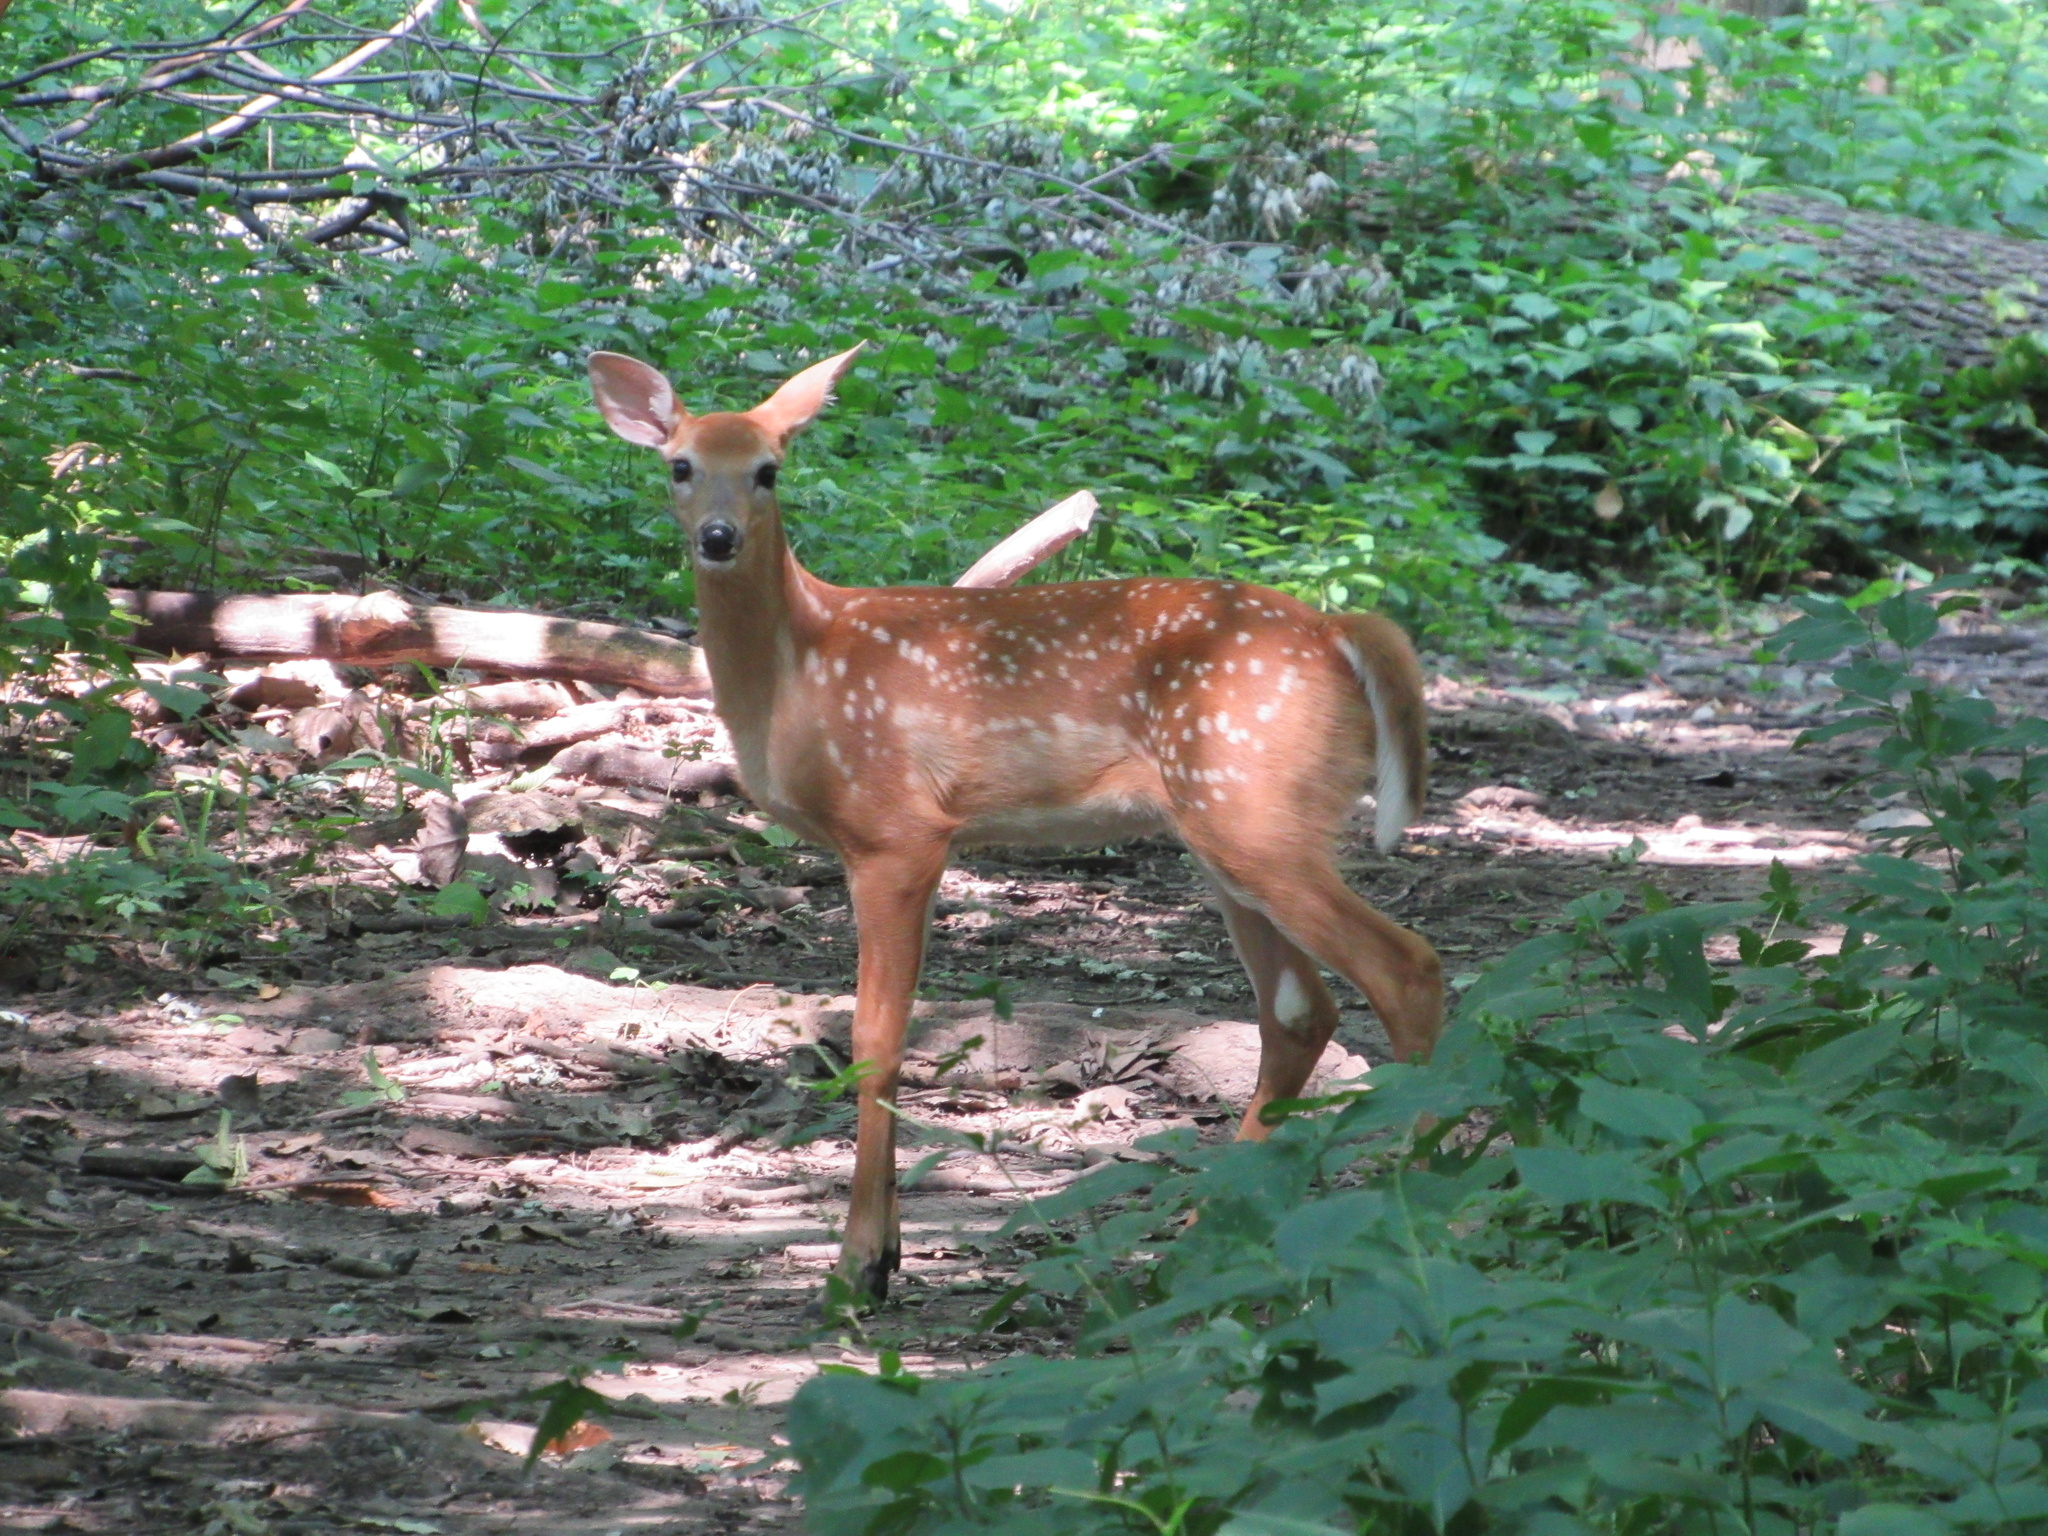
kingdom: Animalia
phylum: Chordata
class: Mammalia
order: Artiodactyla
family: Cervidae
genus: Odocoileus
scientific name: Odocoileus virginianus
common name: White-tailed deer
